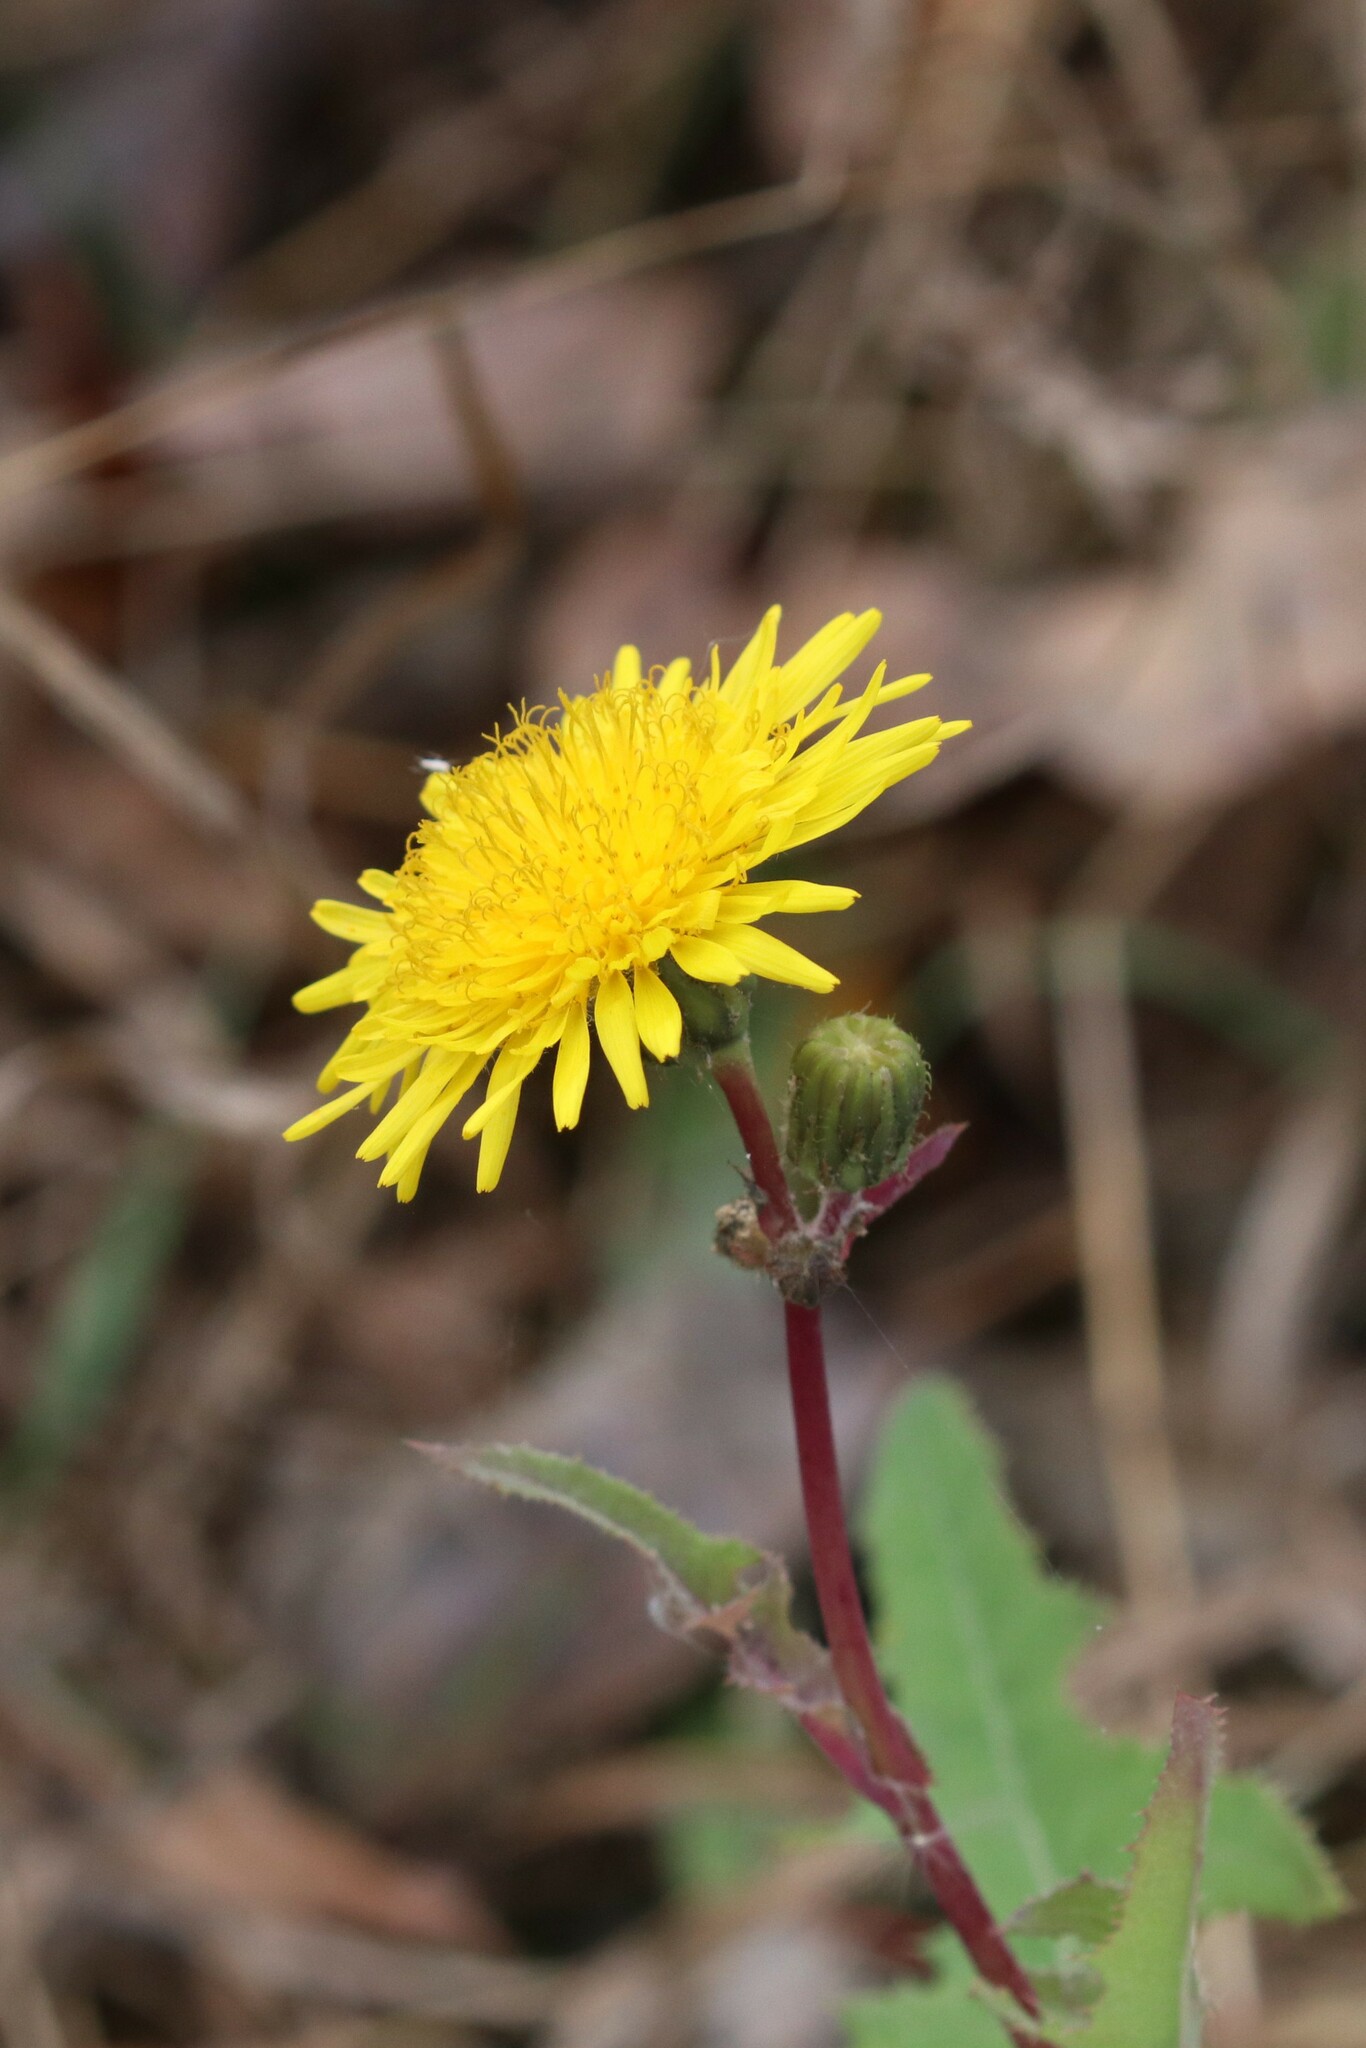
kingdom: Plantae
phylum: Tracheophyta
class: Magnoliopsida
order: Asterales
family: Asteraceae
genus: Sonchus
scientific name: Sonchus arvensis
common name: Perennial sow-thistle
